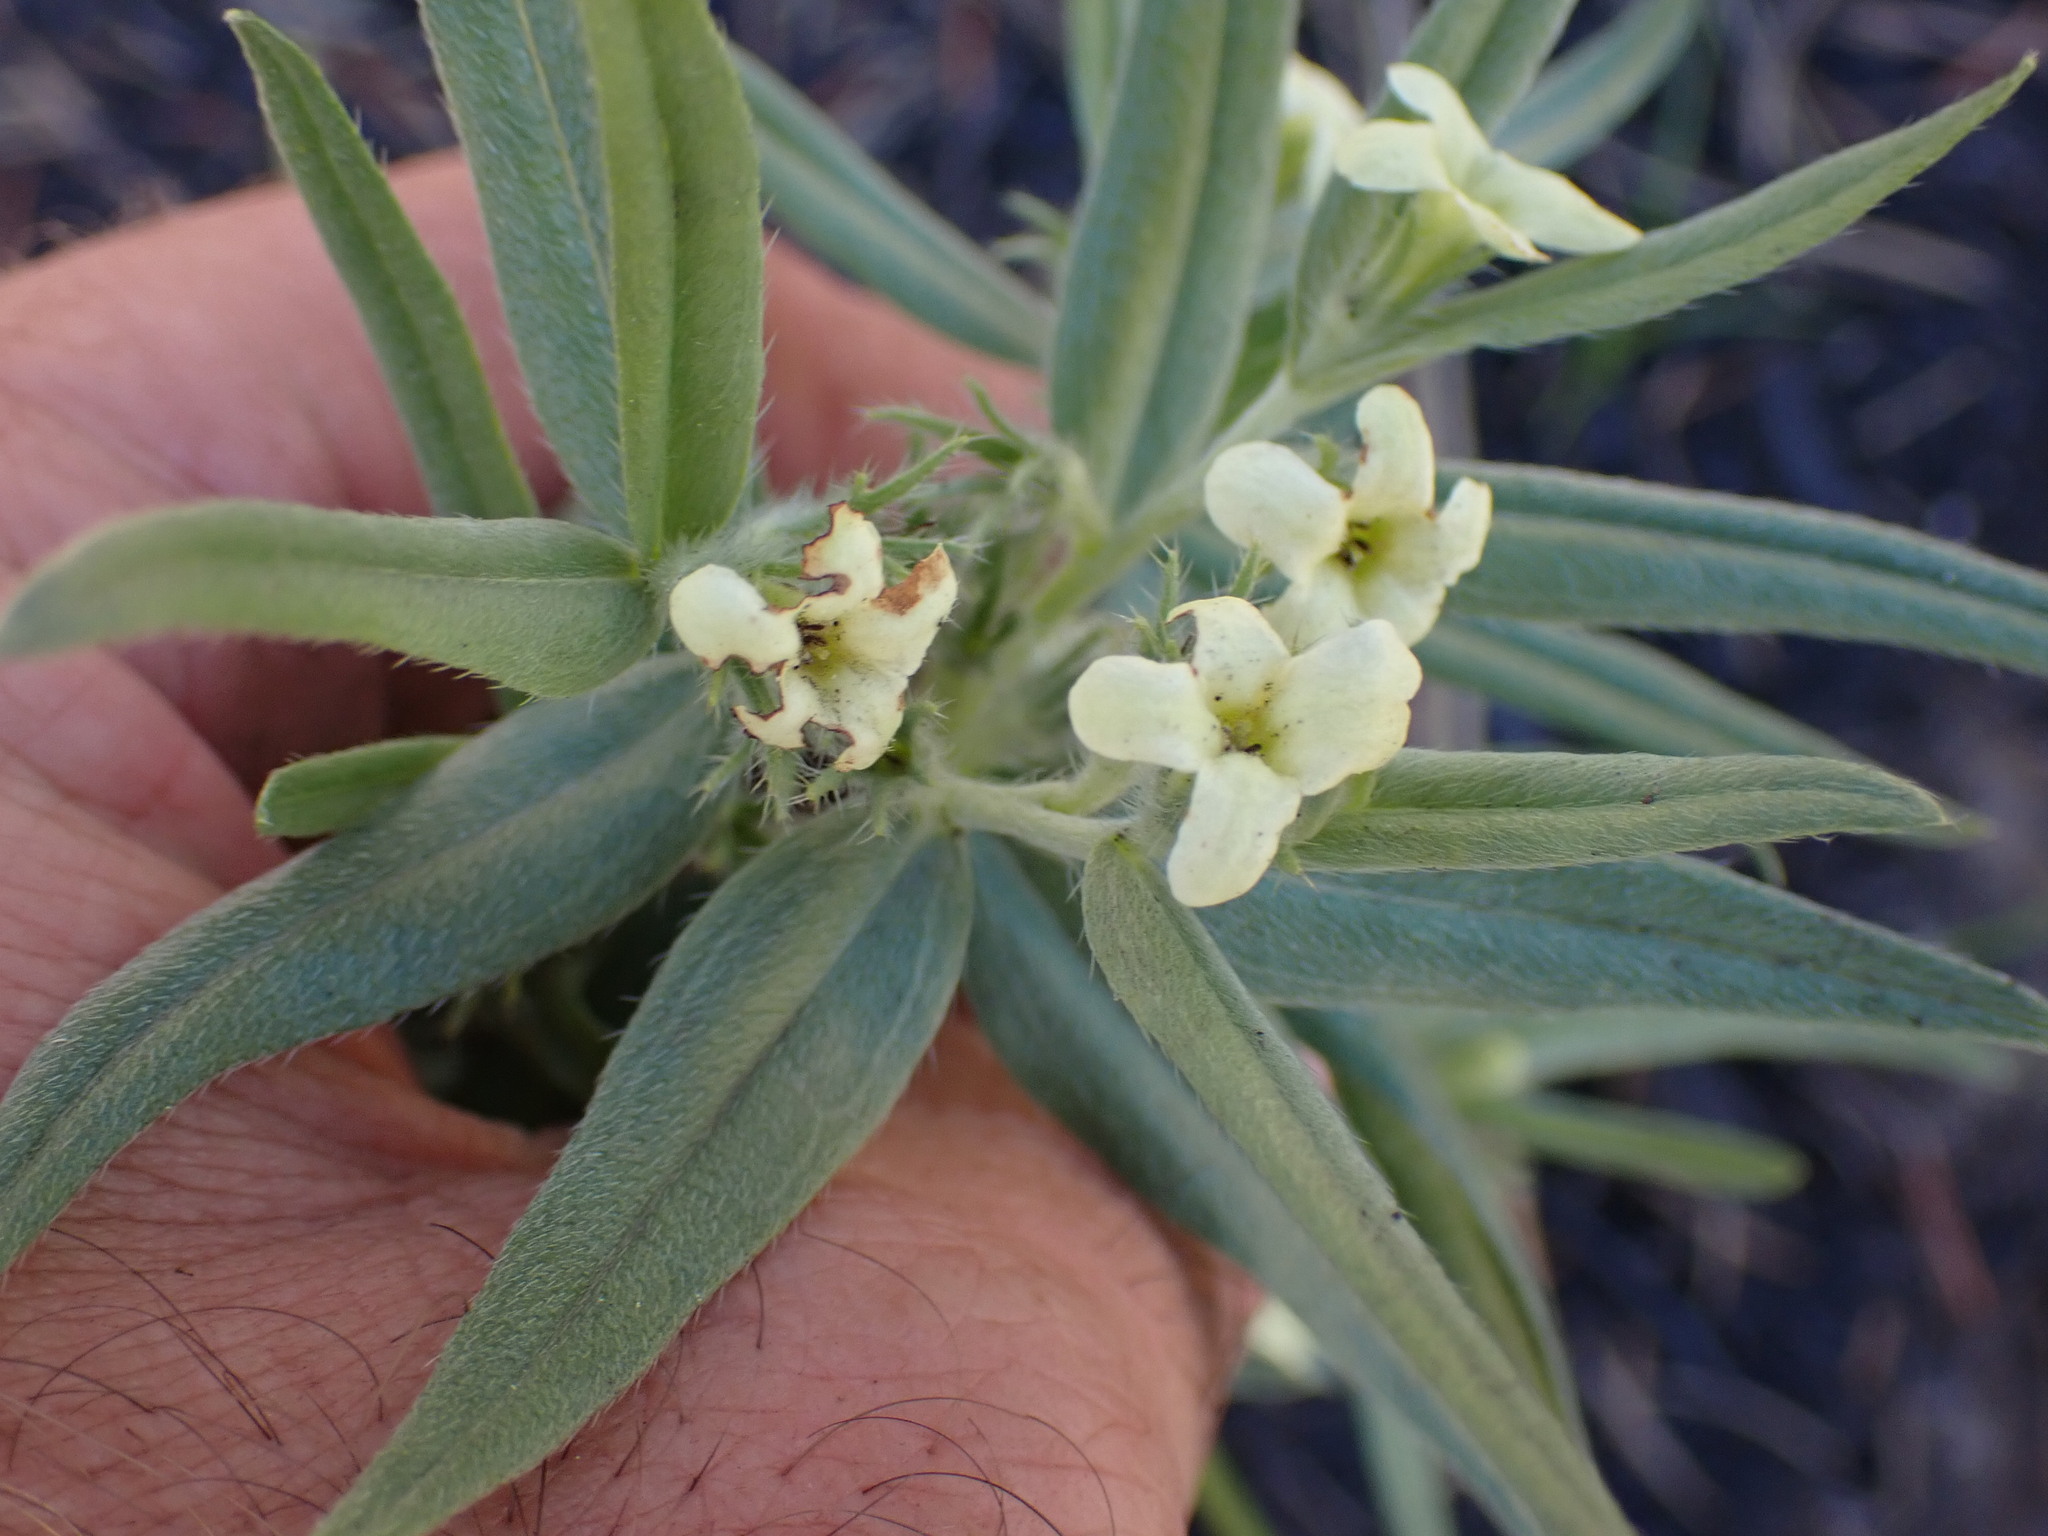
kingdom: Plantae
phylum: Tracheophyta
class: Magnoliopsida
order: Boraginales
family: Boraginaceae
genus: Lithospermum
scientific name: Lithospermum ruderale
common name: Western gromwell
